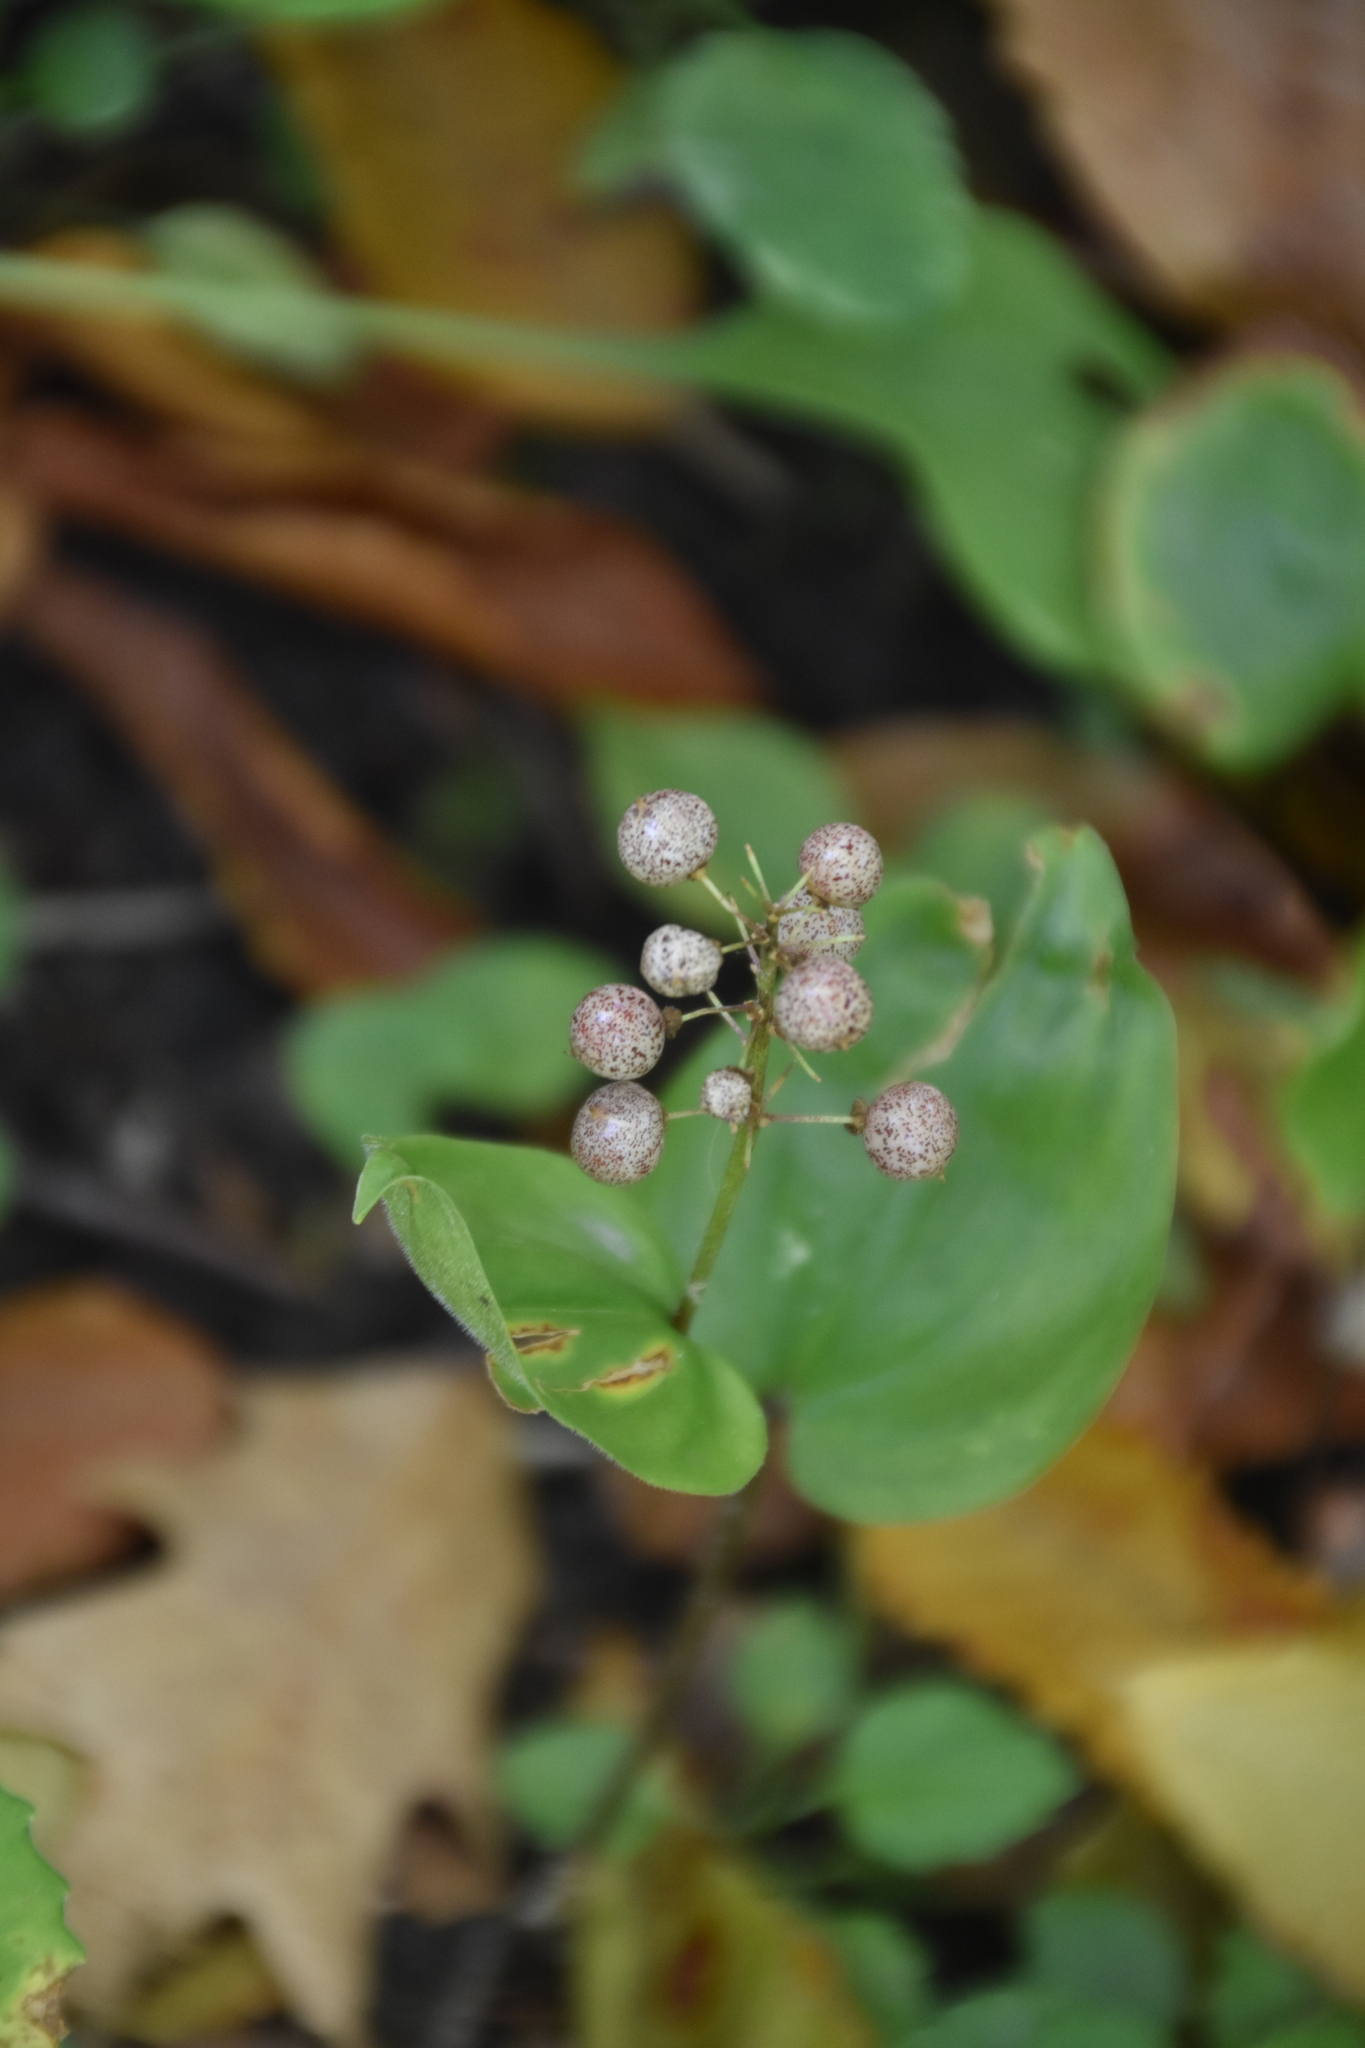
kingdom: Plantae
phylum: Tracheophyta
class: Liliopsida
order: Asparagales
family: Asparagaceae
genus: Maianthemum
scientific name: Maianthemum canadense
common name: False lily-of-the-valley
